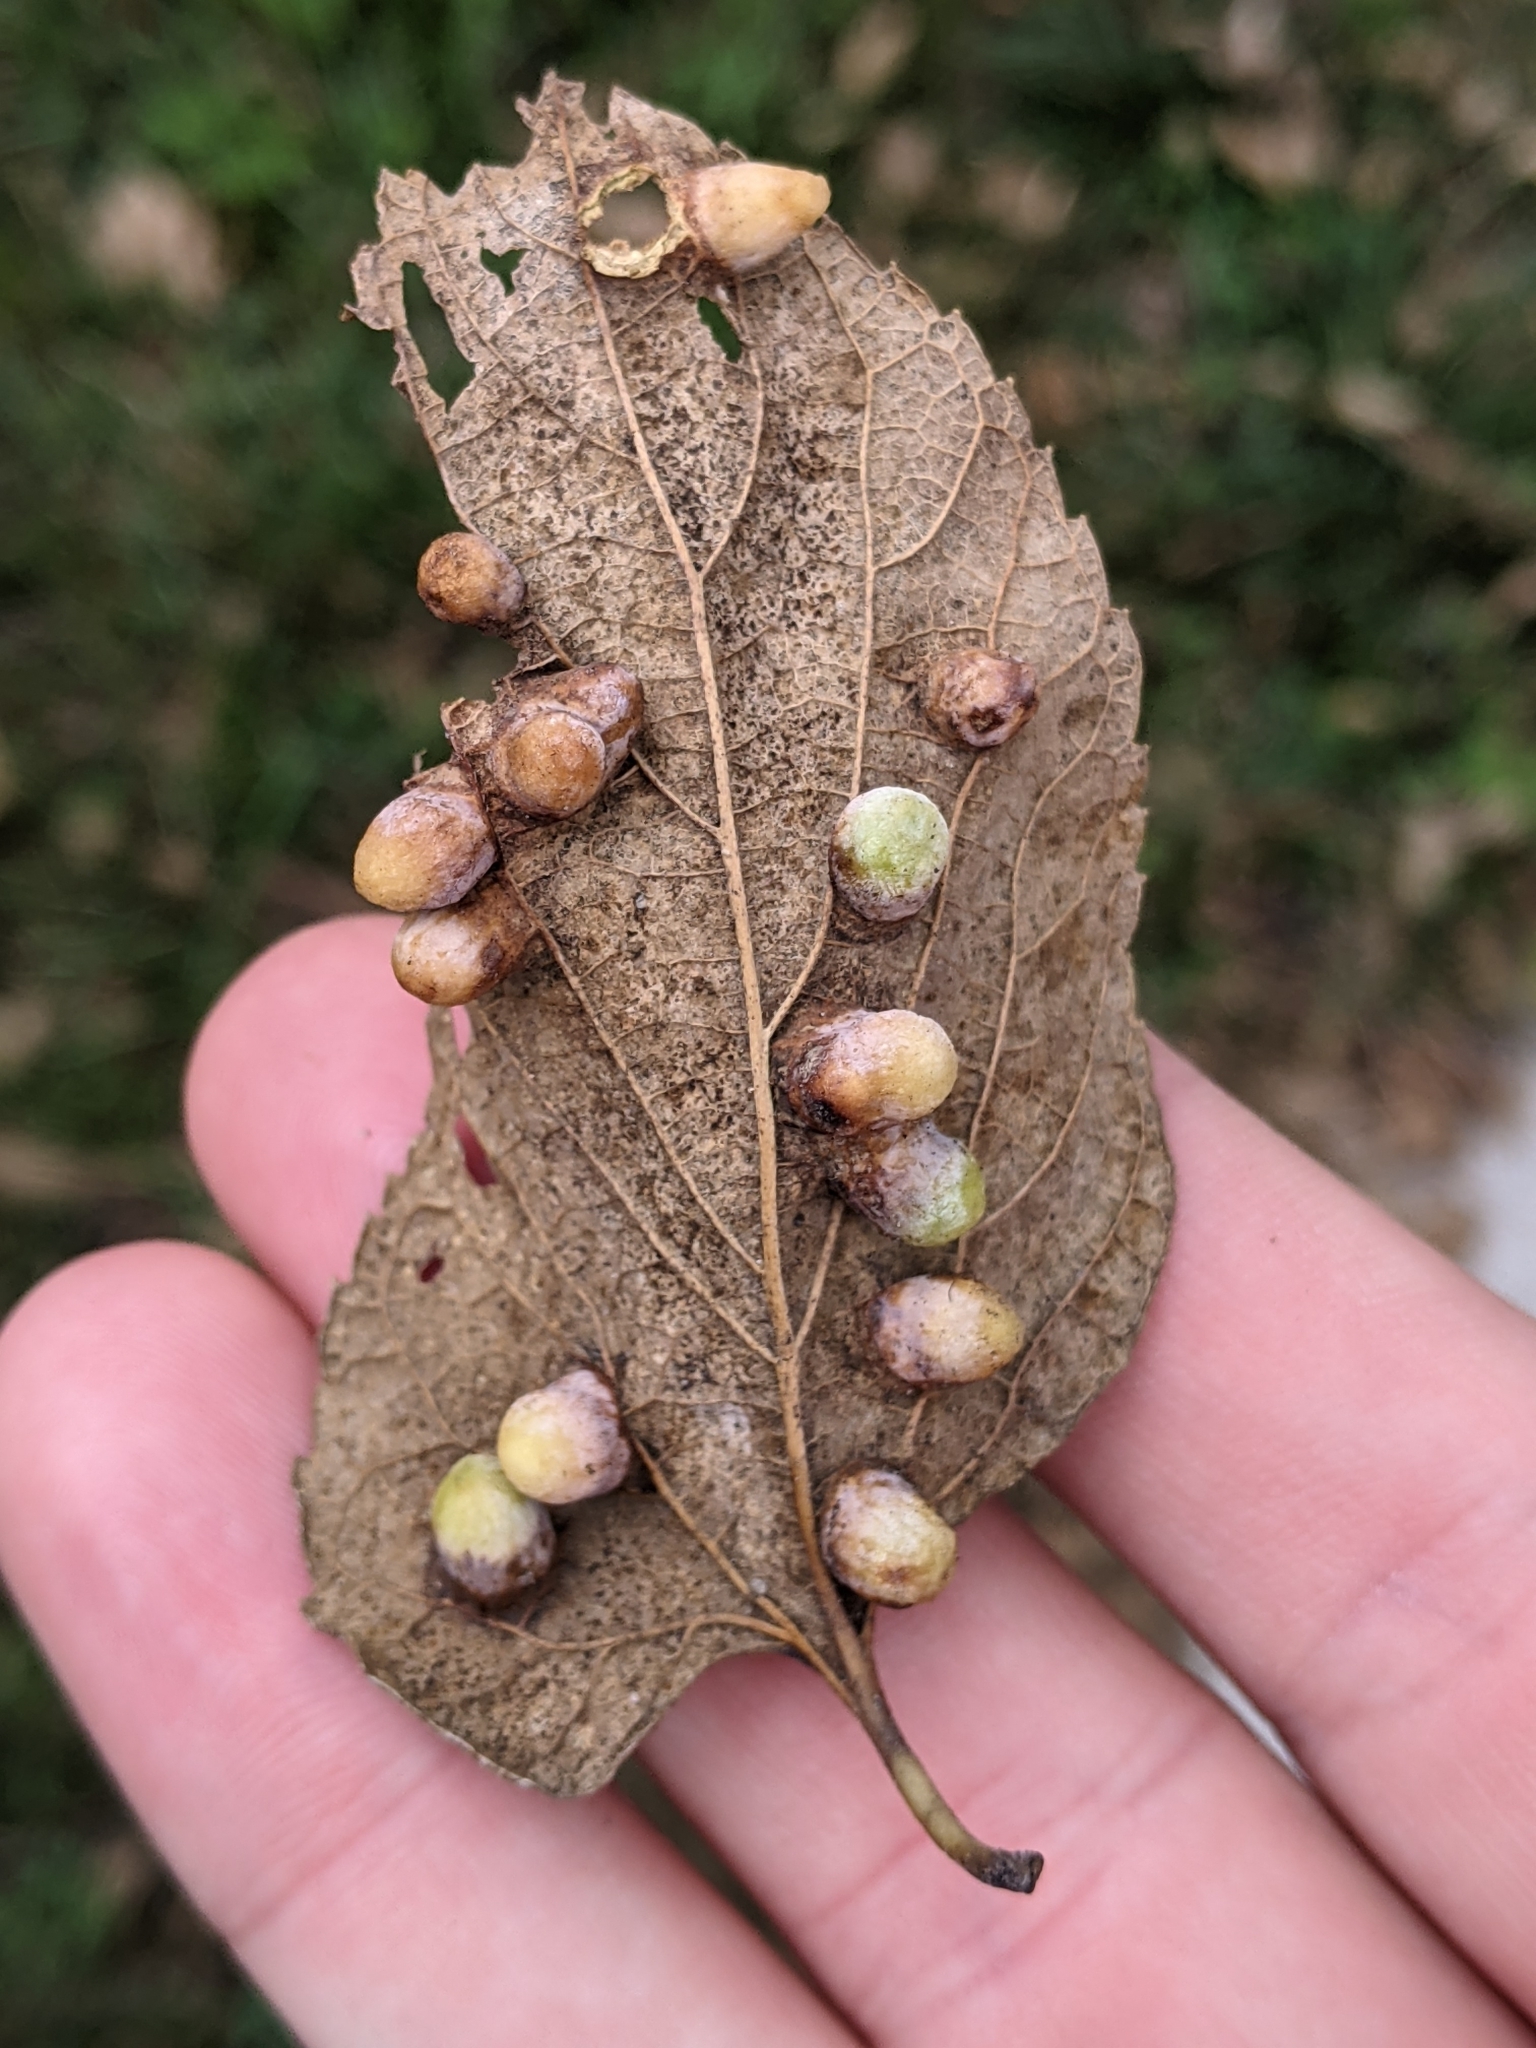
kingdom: Animalia
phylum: Arthropoda
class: Insecta
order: Hemiptera
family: Aphalaridae
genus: Pachypsylla
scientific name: Pachypsylla celtidismamma
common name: Hackberry nipplegall psyllid
